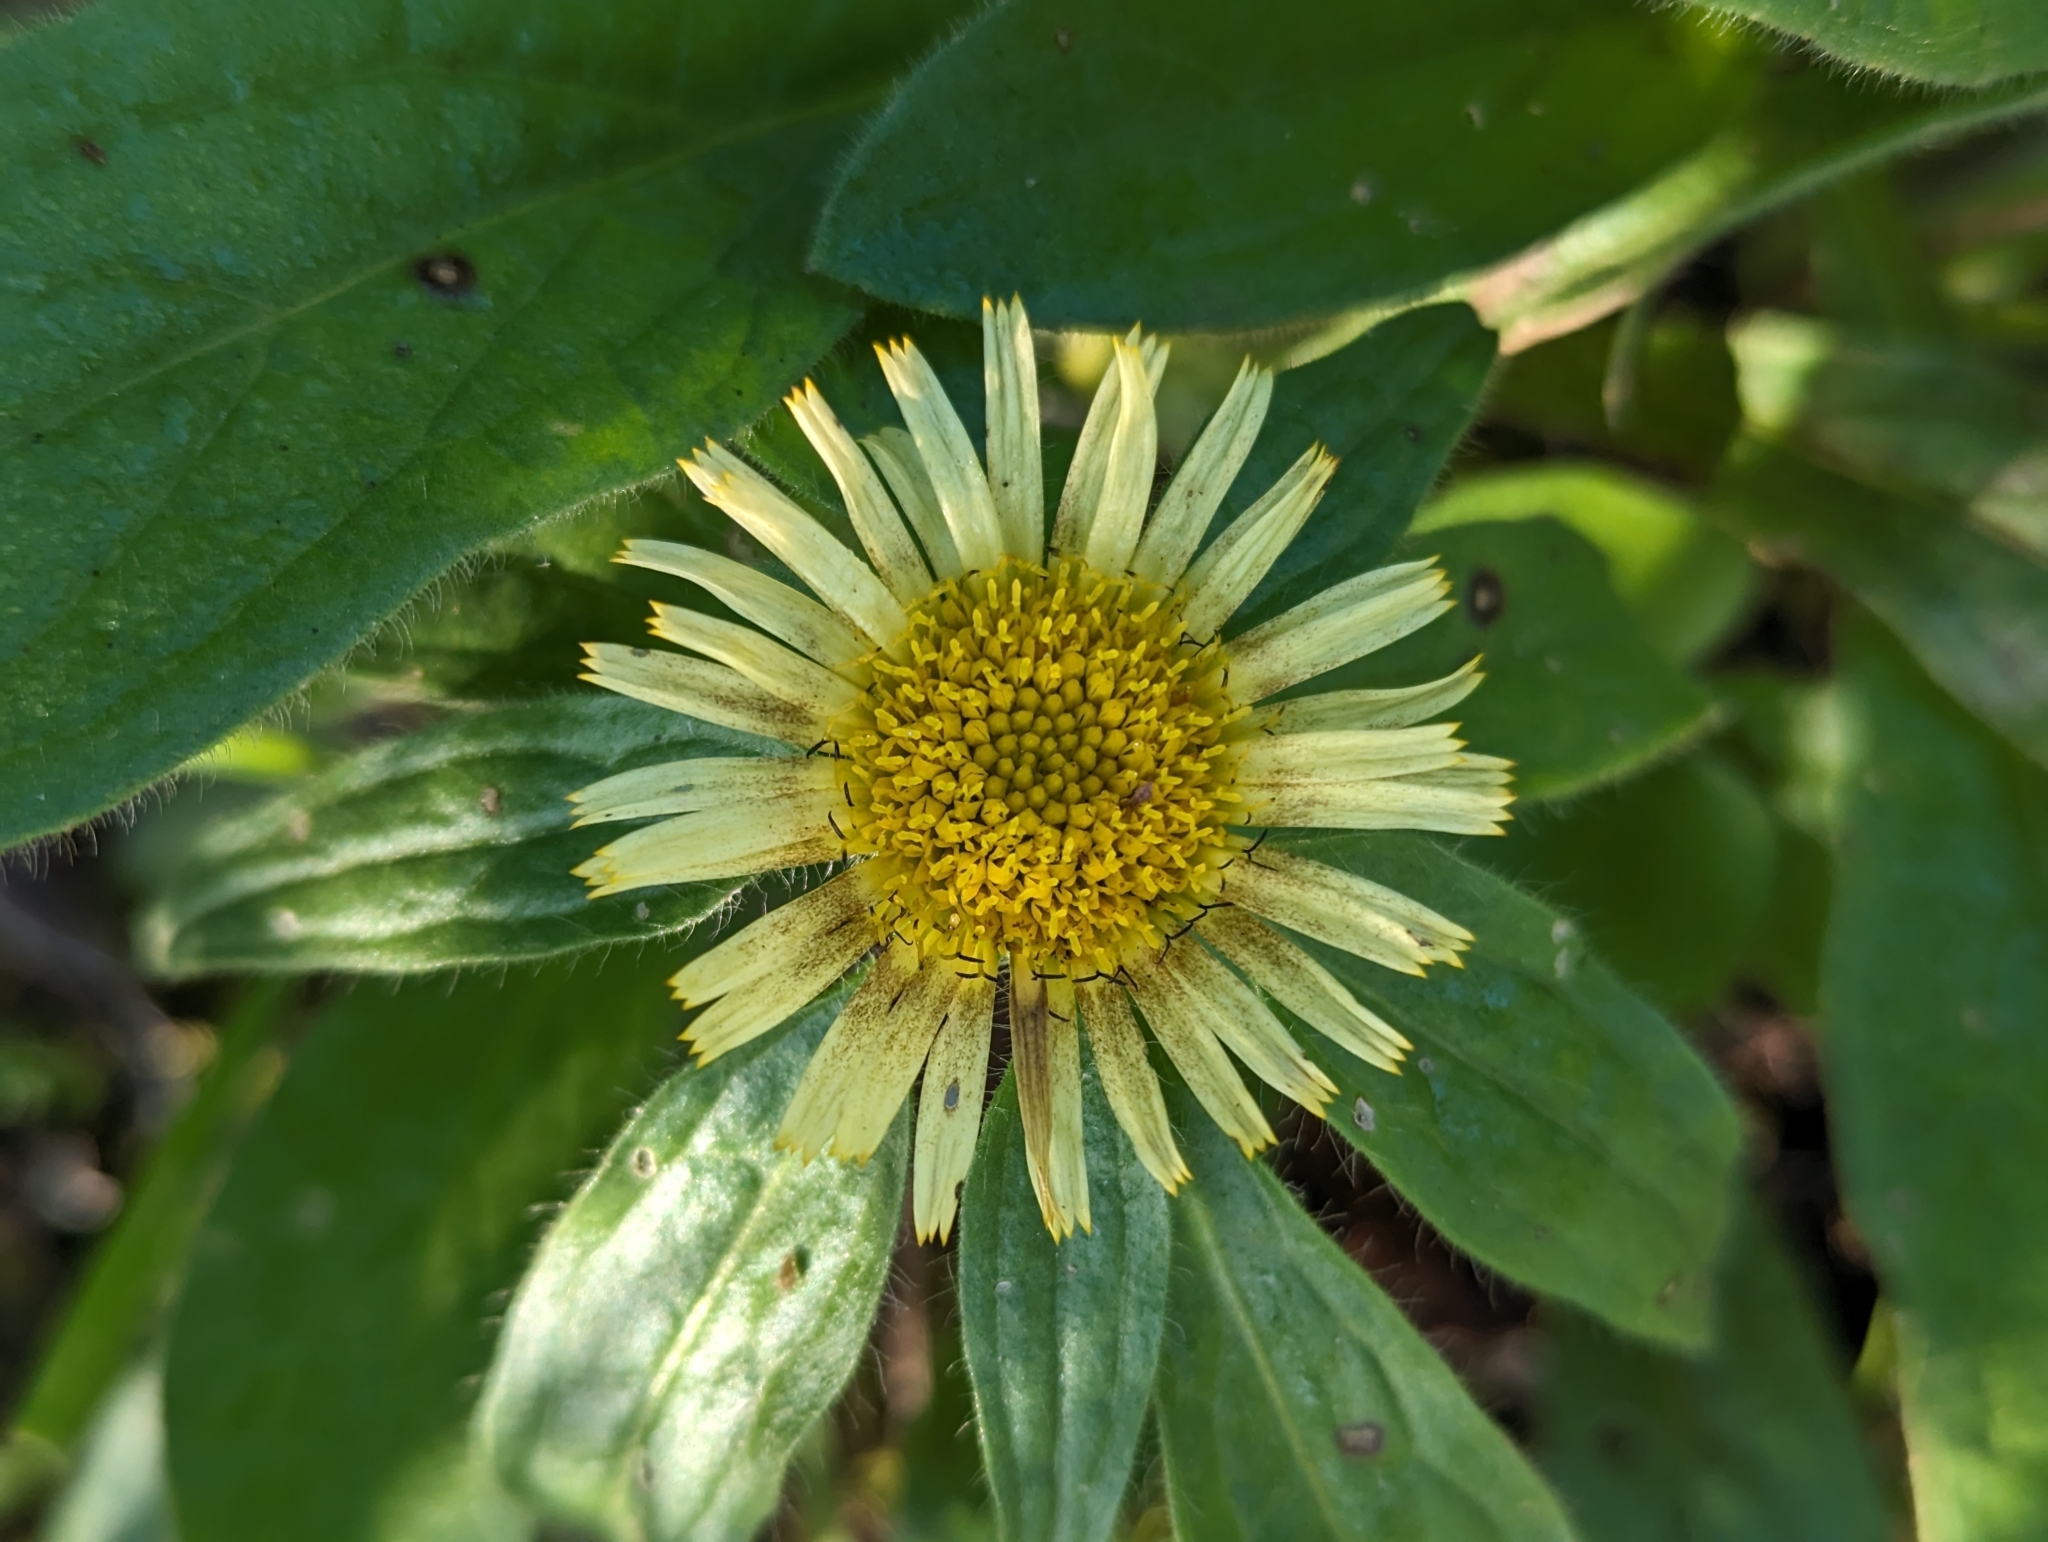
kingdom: Plantae
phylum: Tracheophyta
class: Magnoliopsida
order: Asterales
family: Asteraceae
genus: Pallenis
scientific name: Pallenis spinosa
